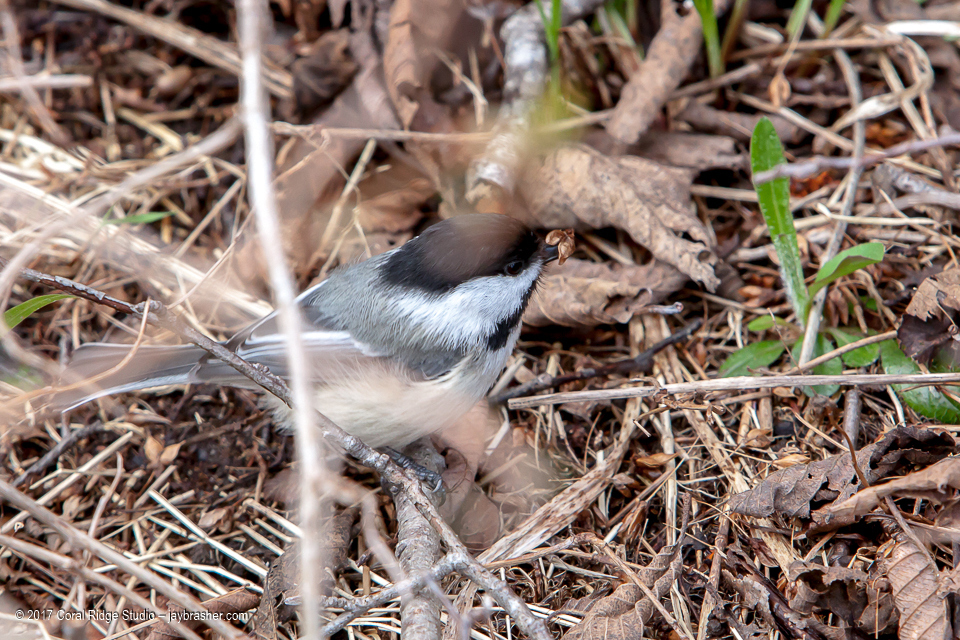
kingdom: Animalia
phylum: Chordata
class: Aves
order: Passeriformes
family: Paridae
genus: Poecile
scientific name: Poecile atricapillus
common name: Black-capped chickadee
